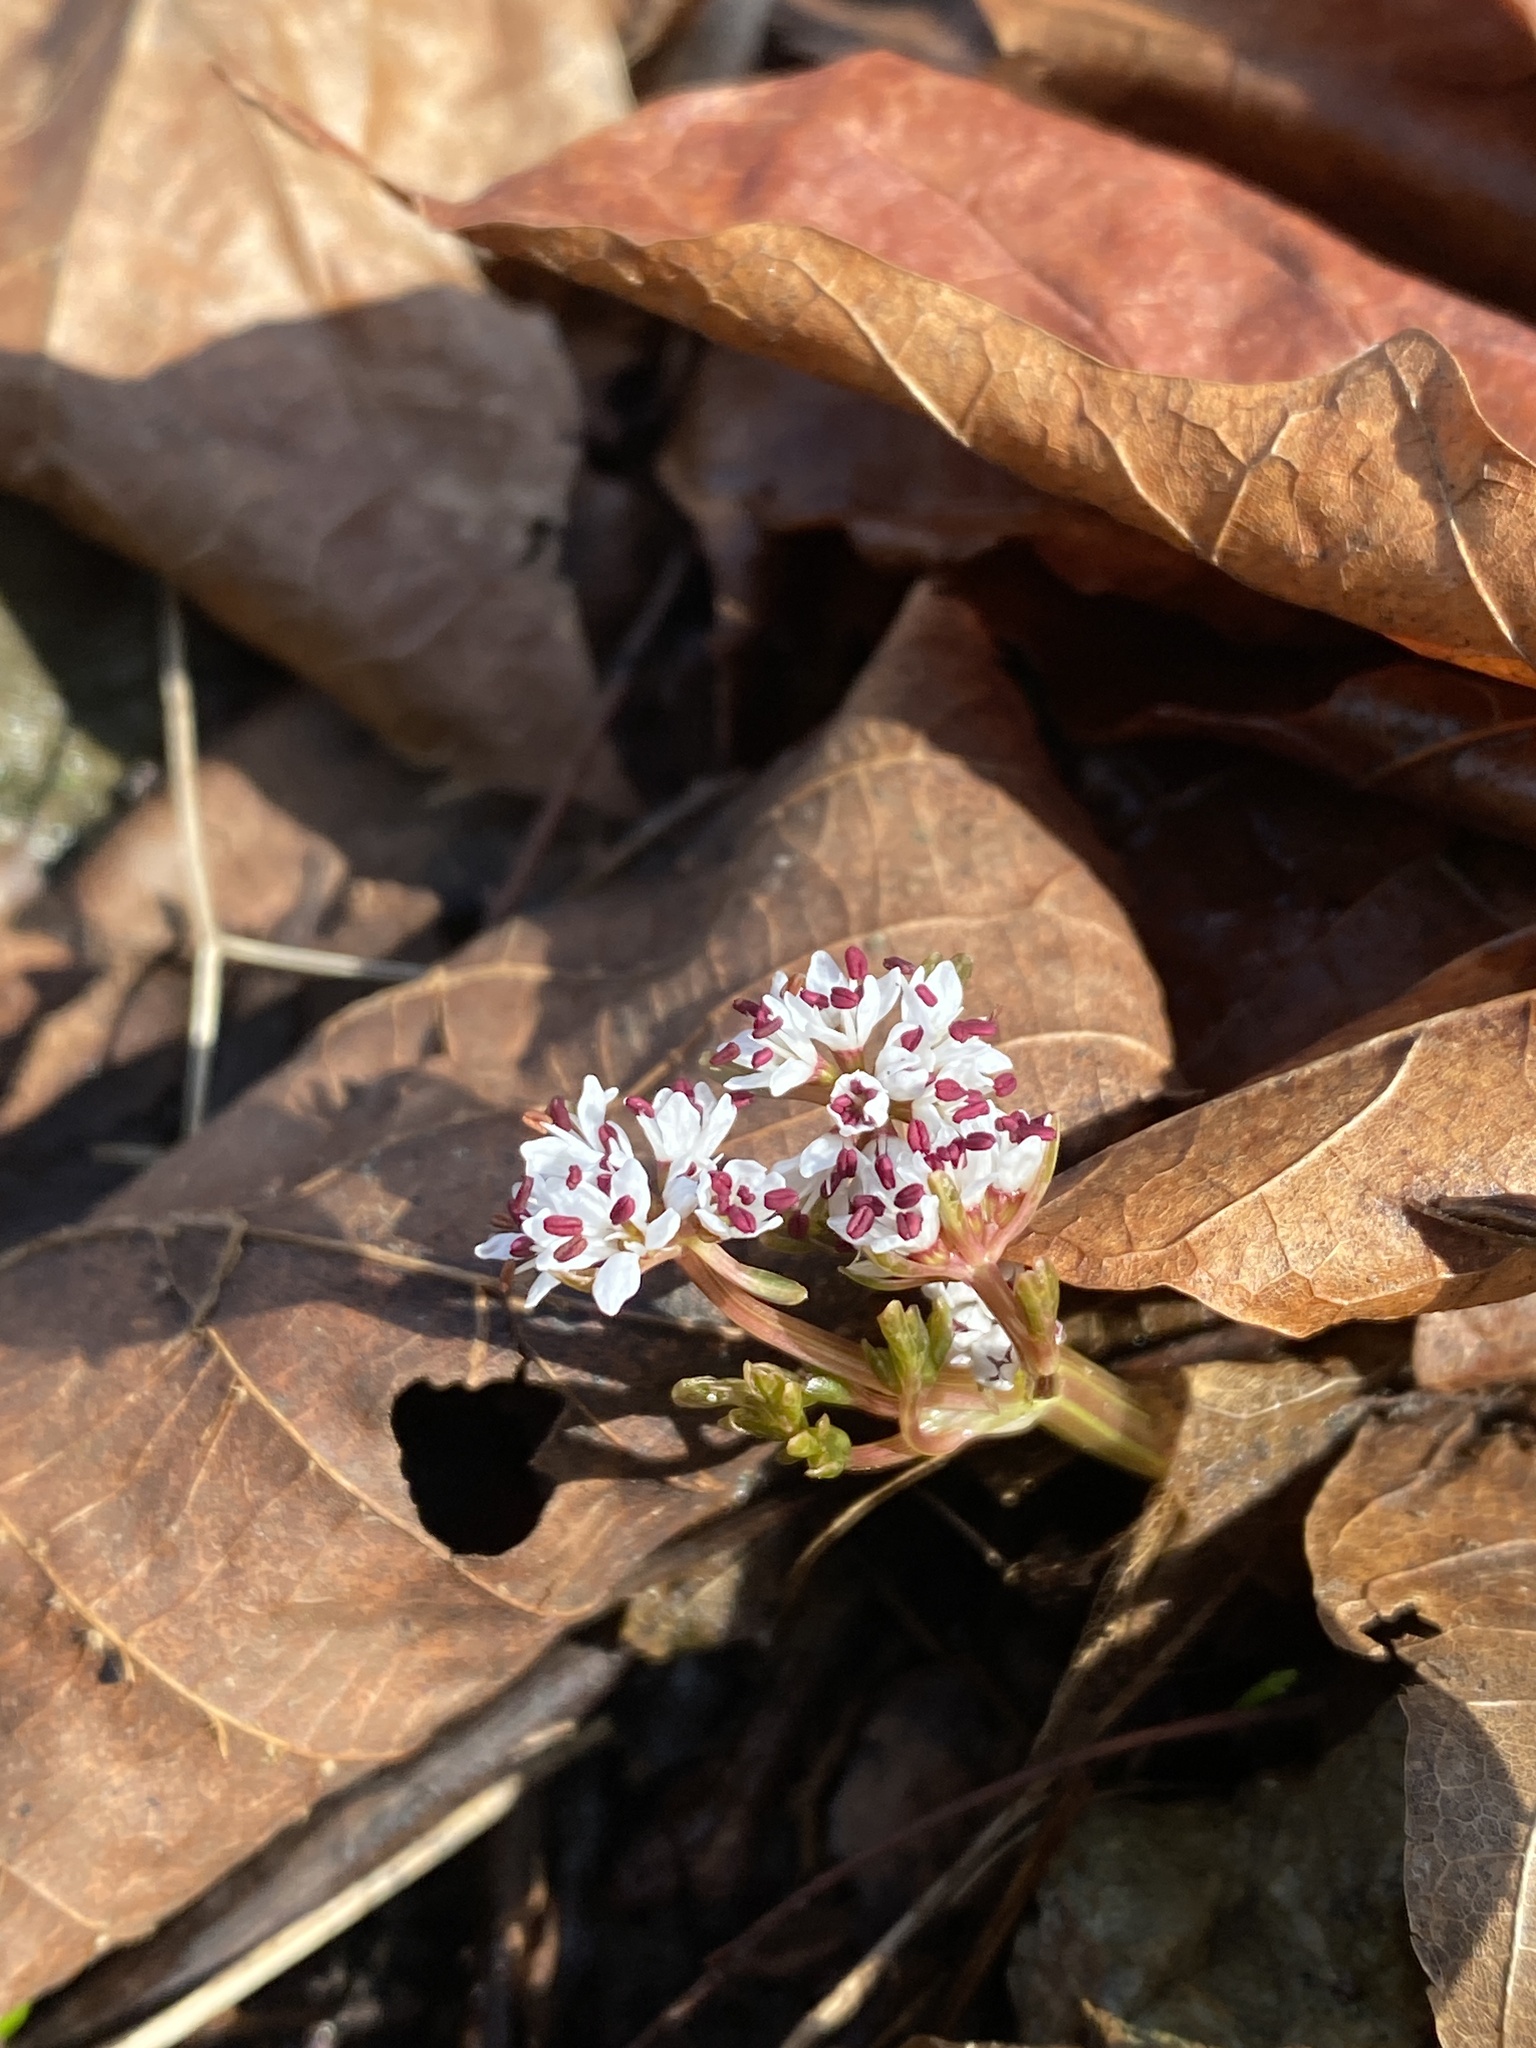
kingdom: Plantae
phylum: Tracheophyta
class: Magnoliopsida
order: Apiales
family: Apiaceae
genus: Erigenia
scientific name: Erigenia bulbosa
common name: Pepper-and-salt
